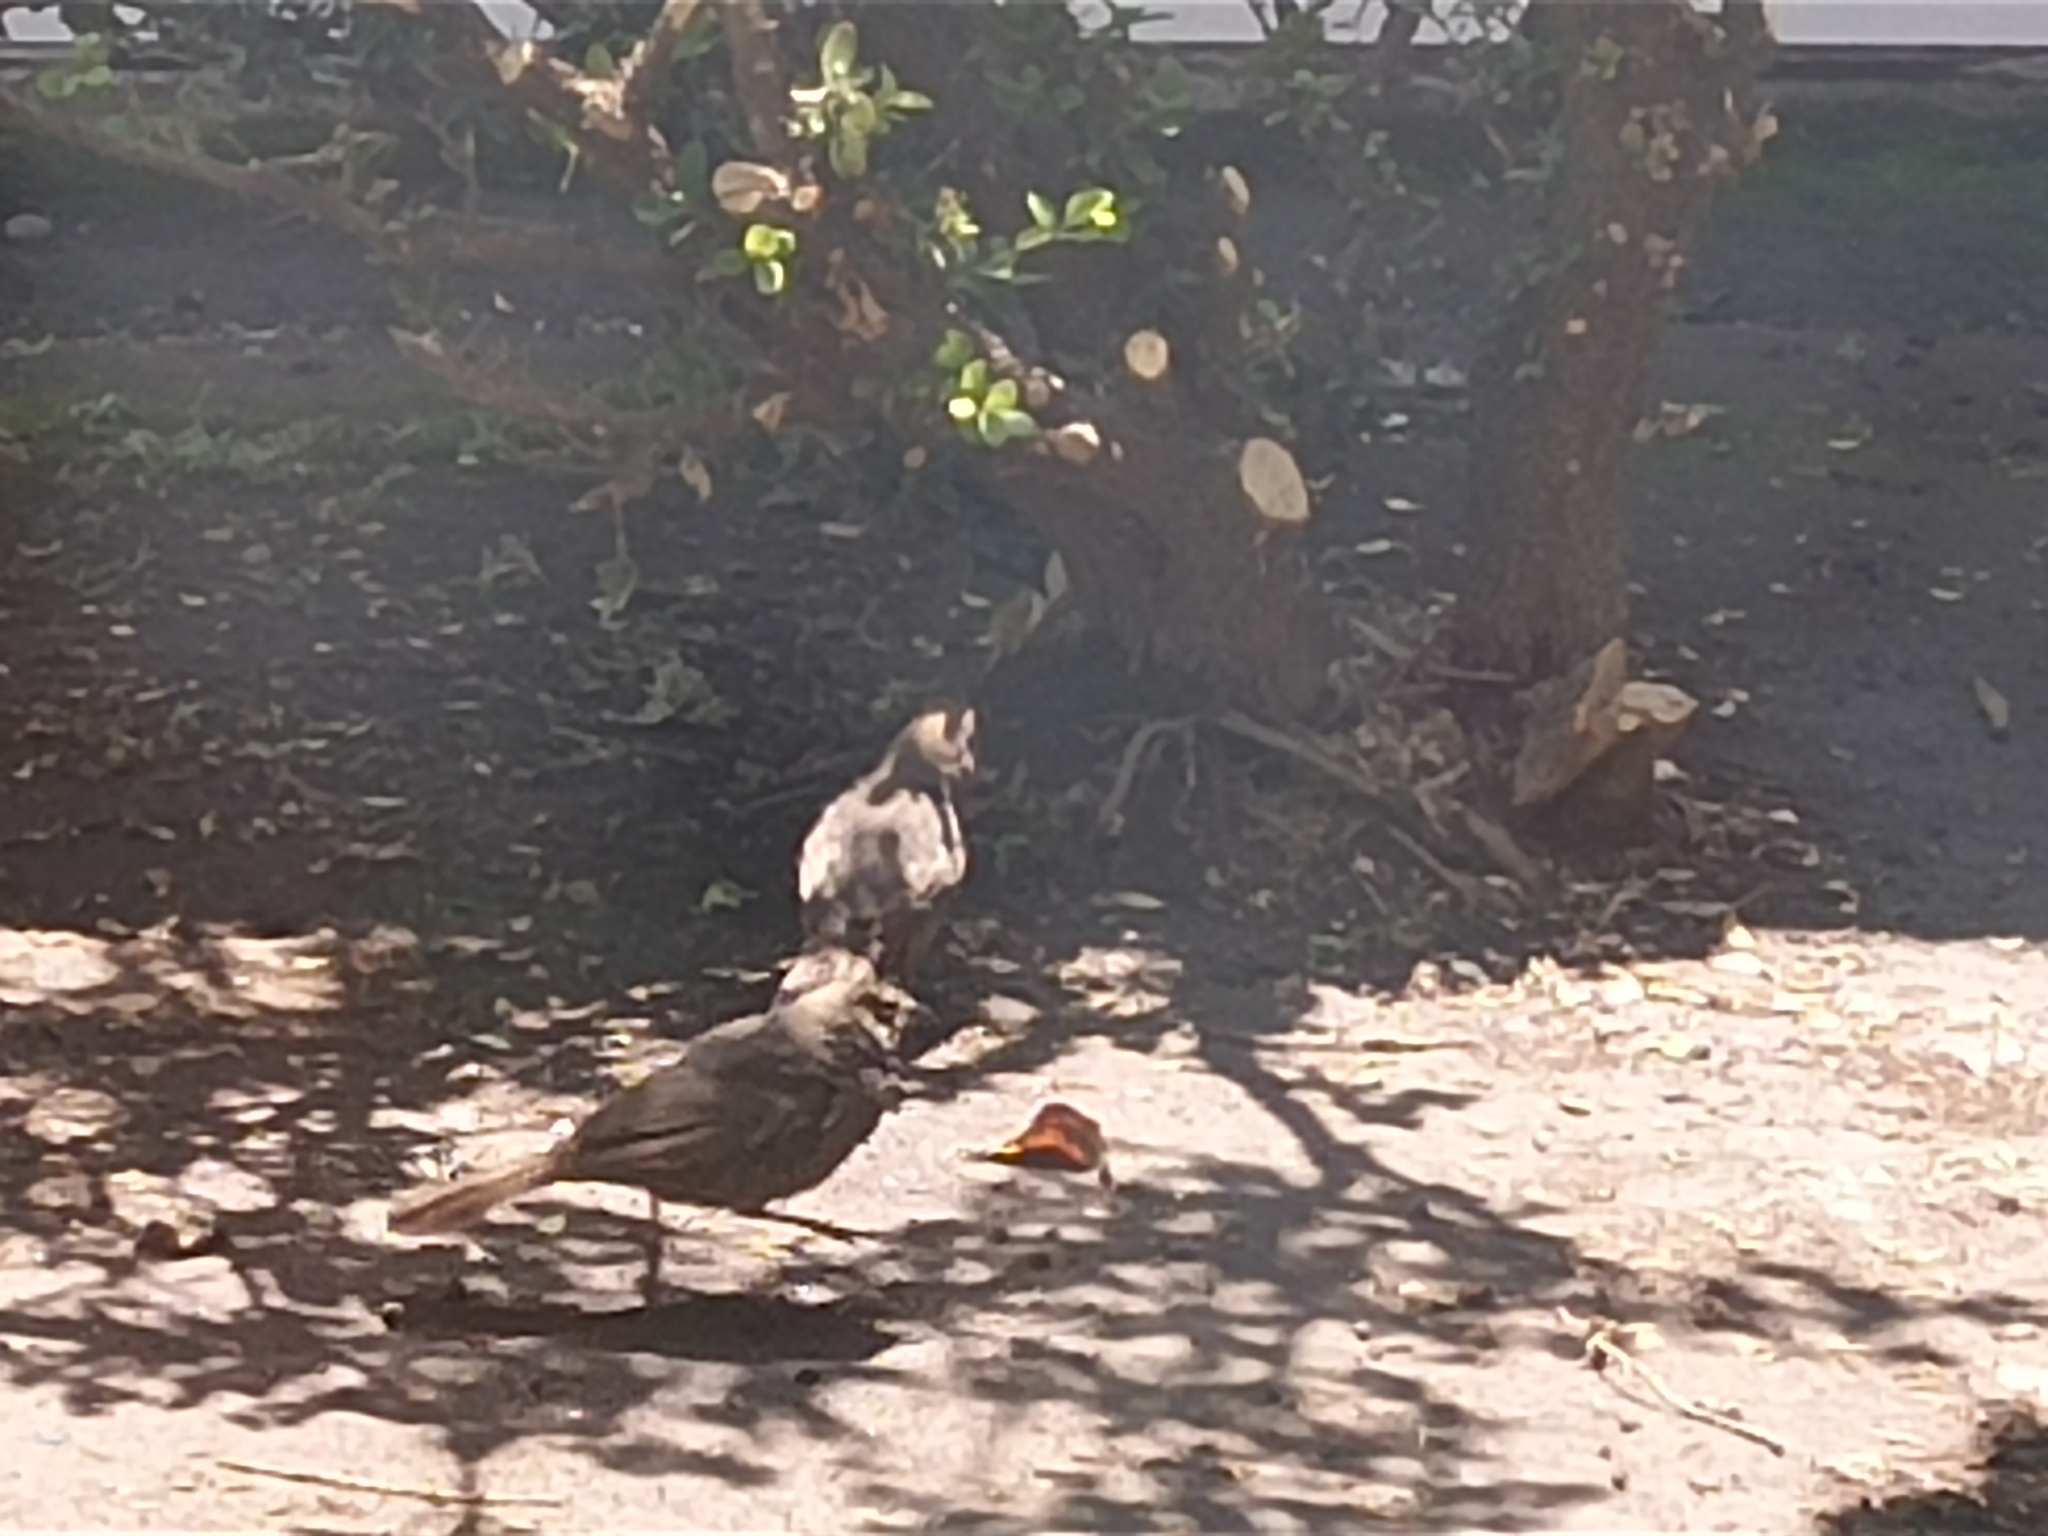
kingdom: Animalia
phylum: Chordata
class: Aves
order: Passeriformes
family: Passerellidae
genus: Melozone
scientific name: Melozone fusca
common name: Canyon towhee
